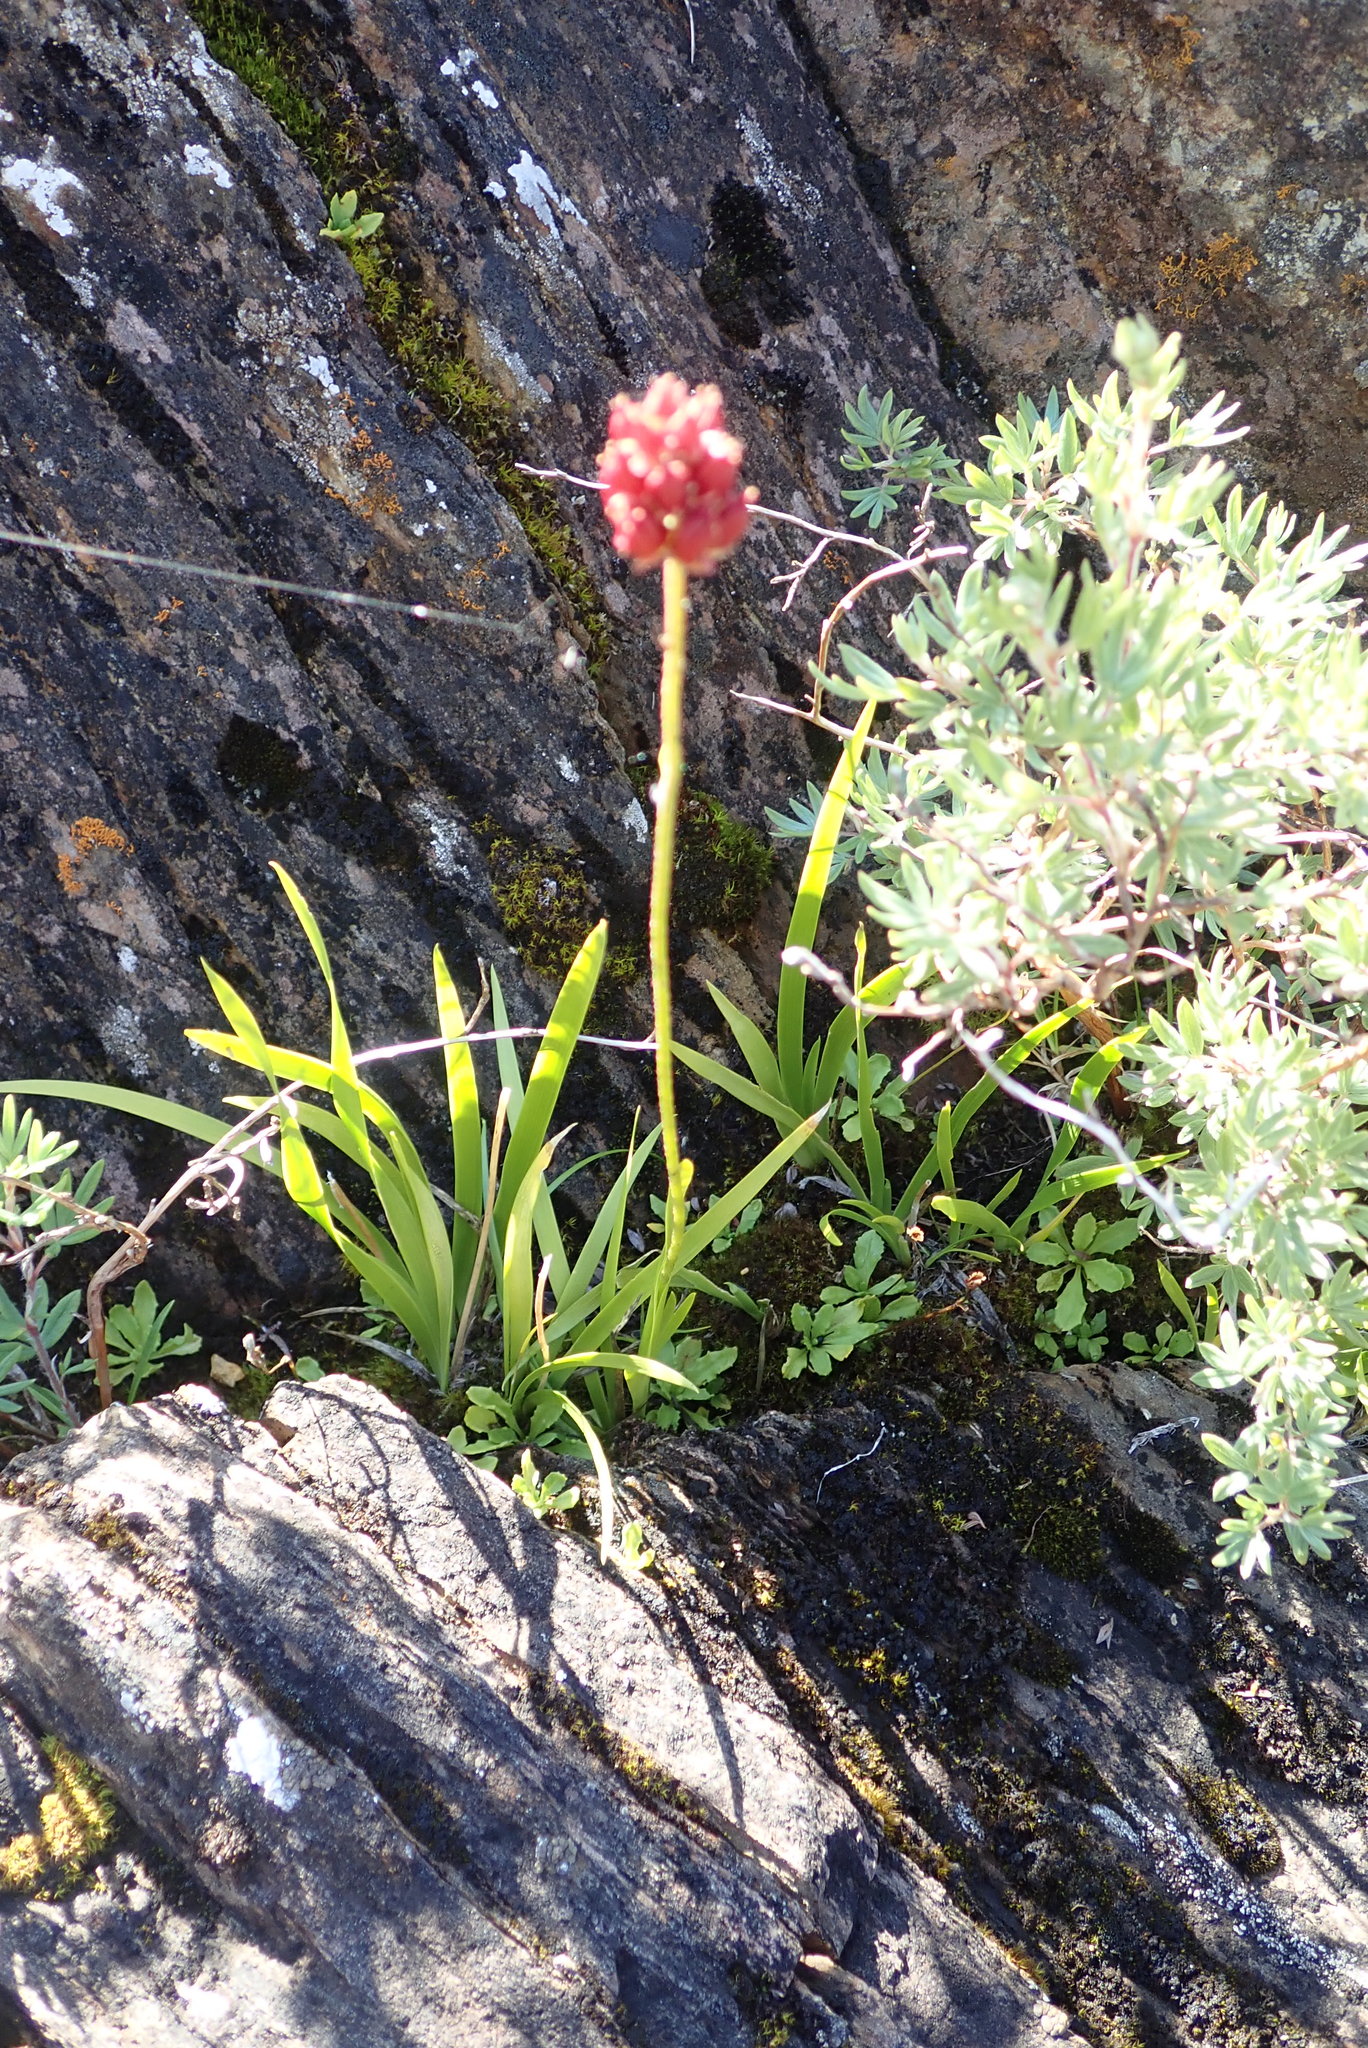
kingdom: Plantae
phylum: Tracheophyta
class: Liliopsida
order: Alismatales
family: Tofieldiaceae
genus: Triantha
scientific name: Triantha glutinosa
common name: Glutinous tofieldia
